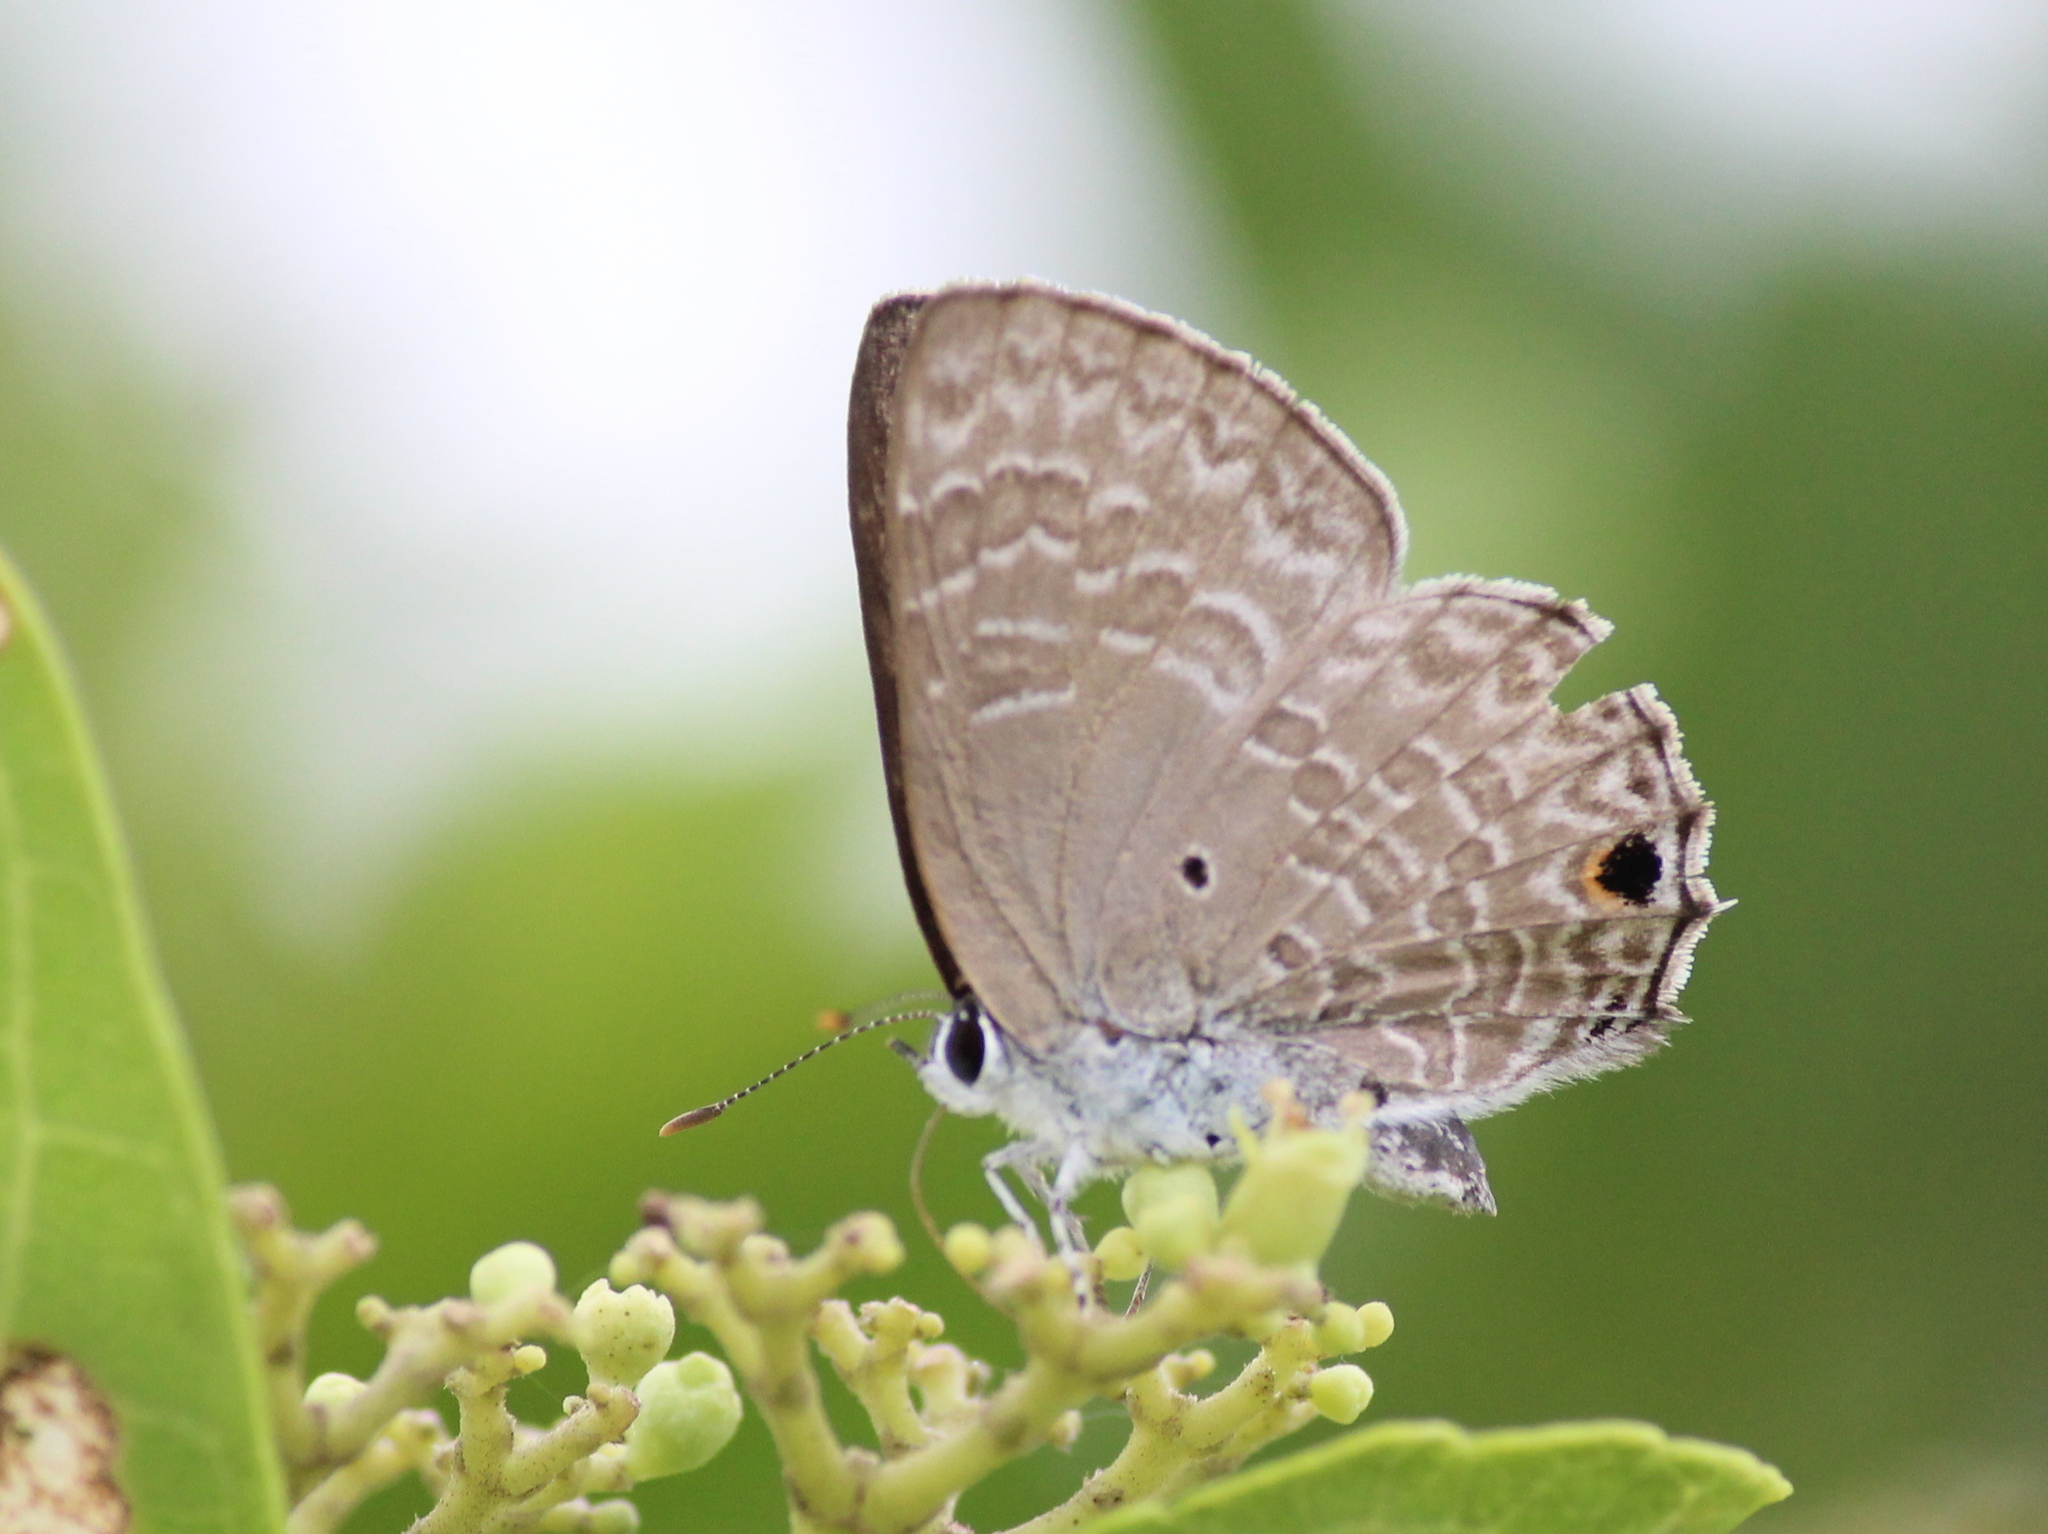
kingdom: Animalia
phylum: Arthropoda
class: Insecta
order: Lepidoptera
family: Lycaenidae
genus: Anthene
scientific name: Anthene lycaenina
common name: Pointed ciliate blue
